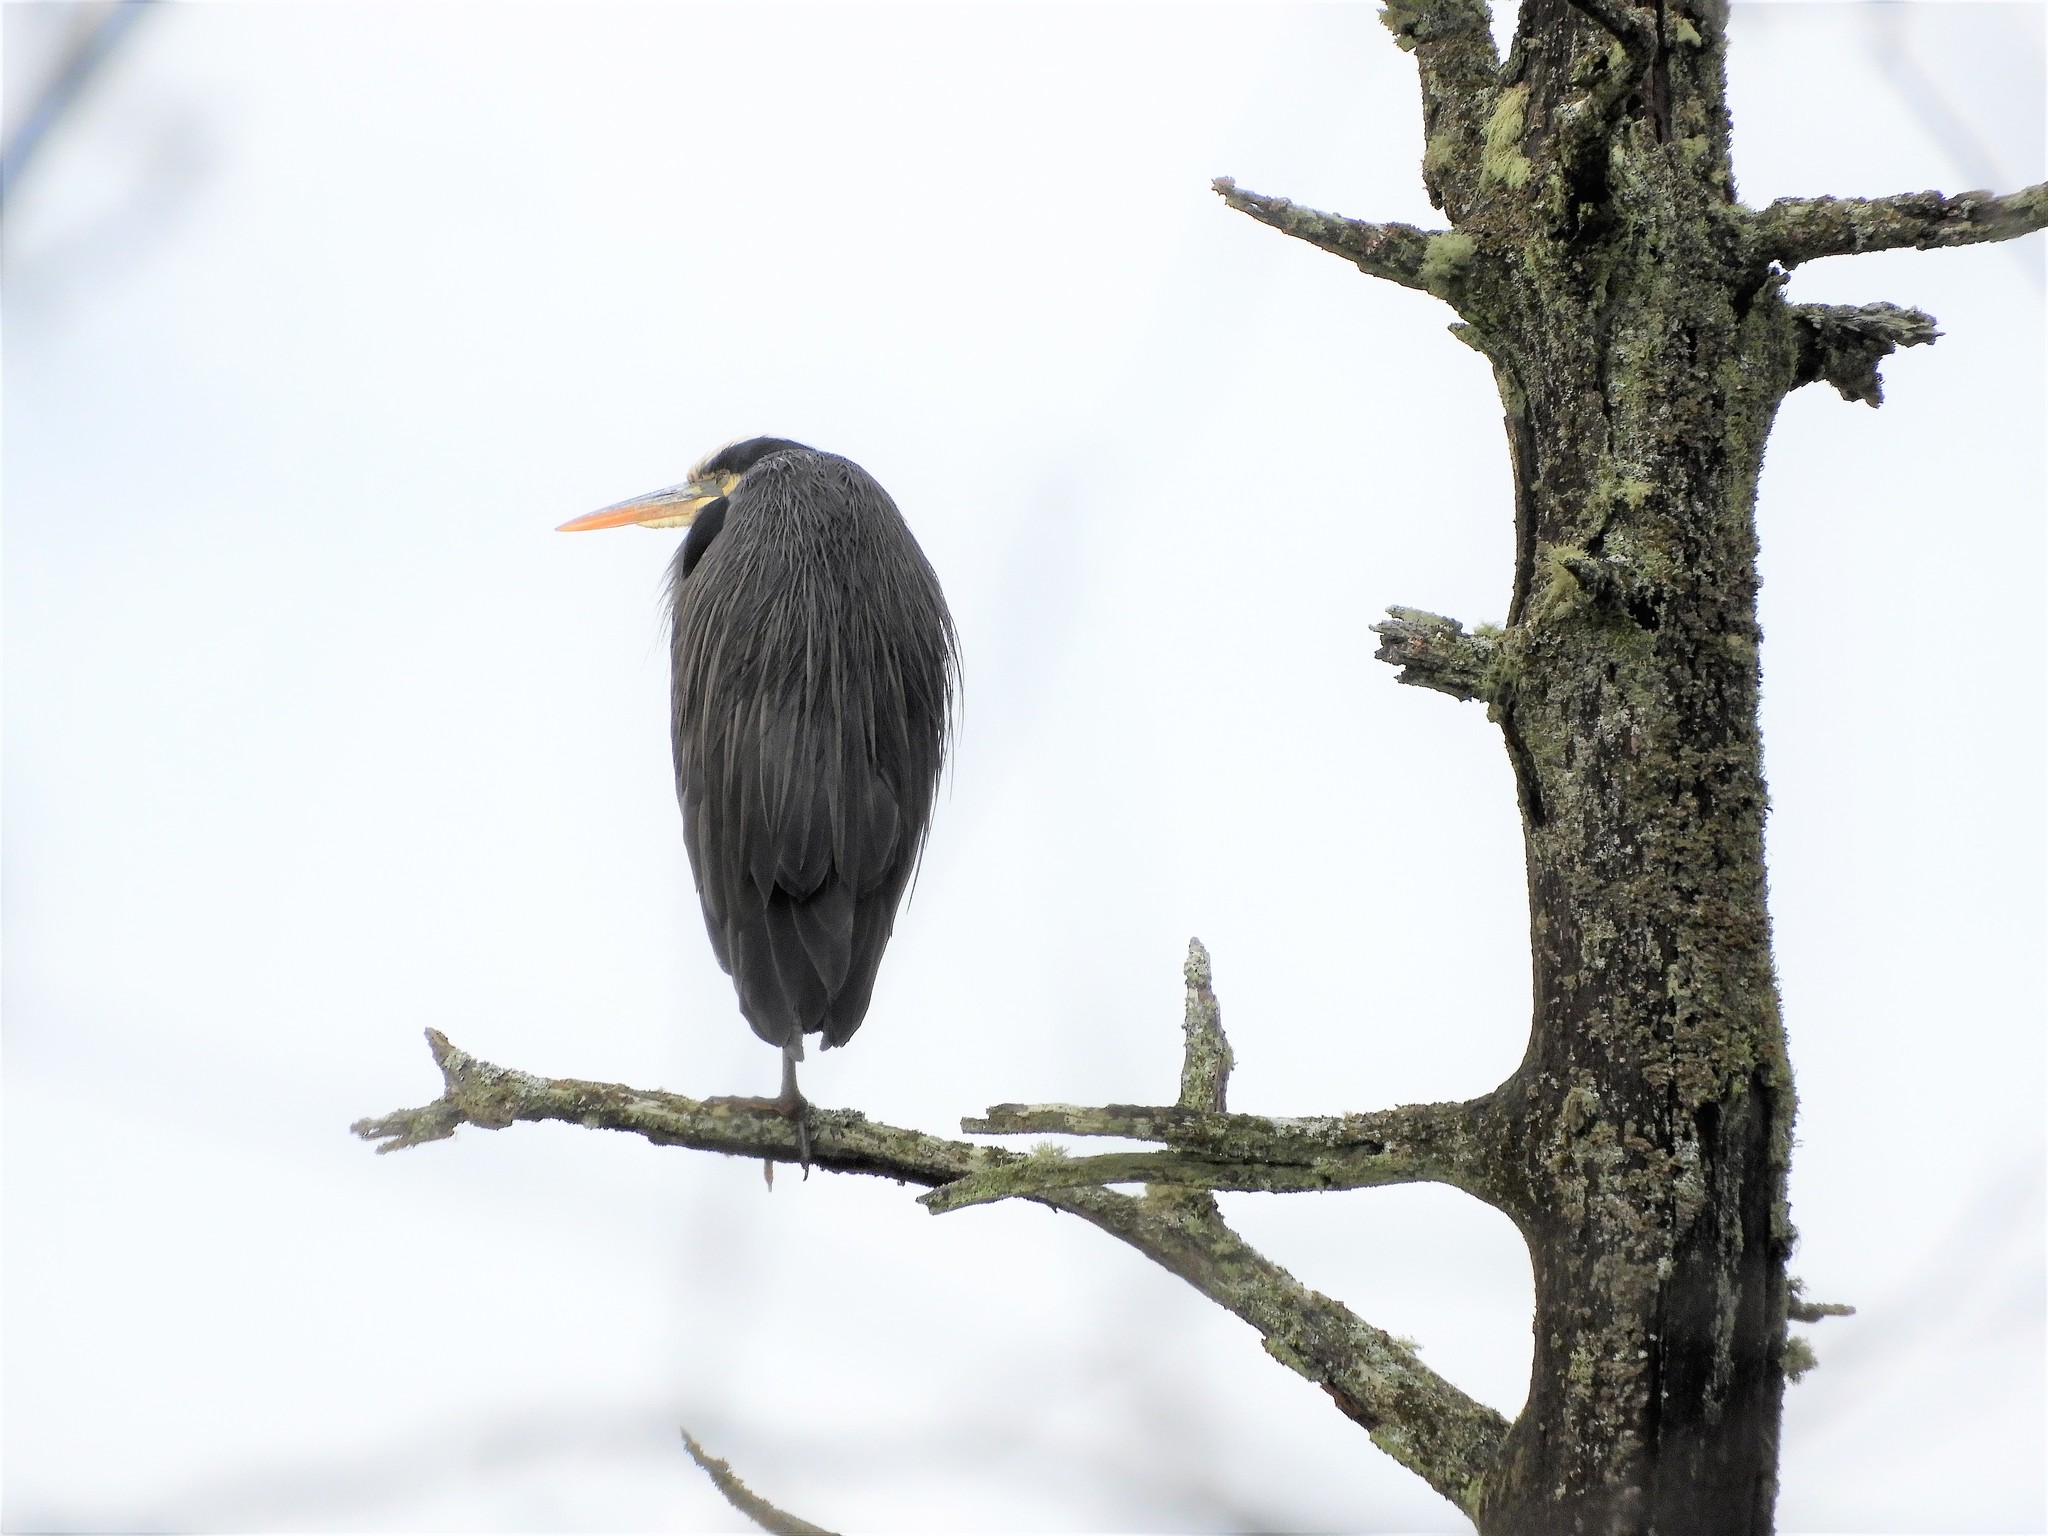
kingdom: Animalia
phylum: Chordata
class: Aves
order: Pelecaniformes
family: Ardeidae
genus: Ardea
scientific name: Ardea herodias
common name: Great blue heron
